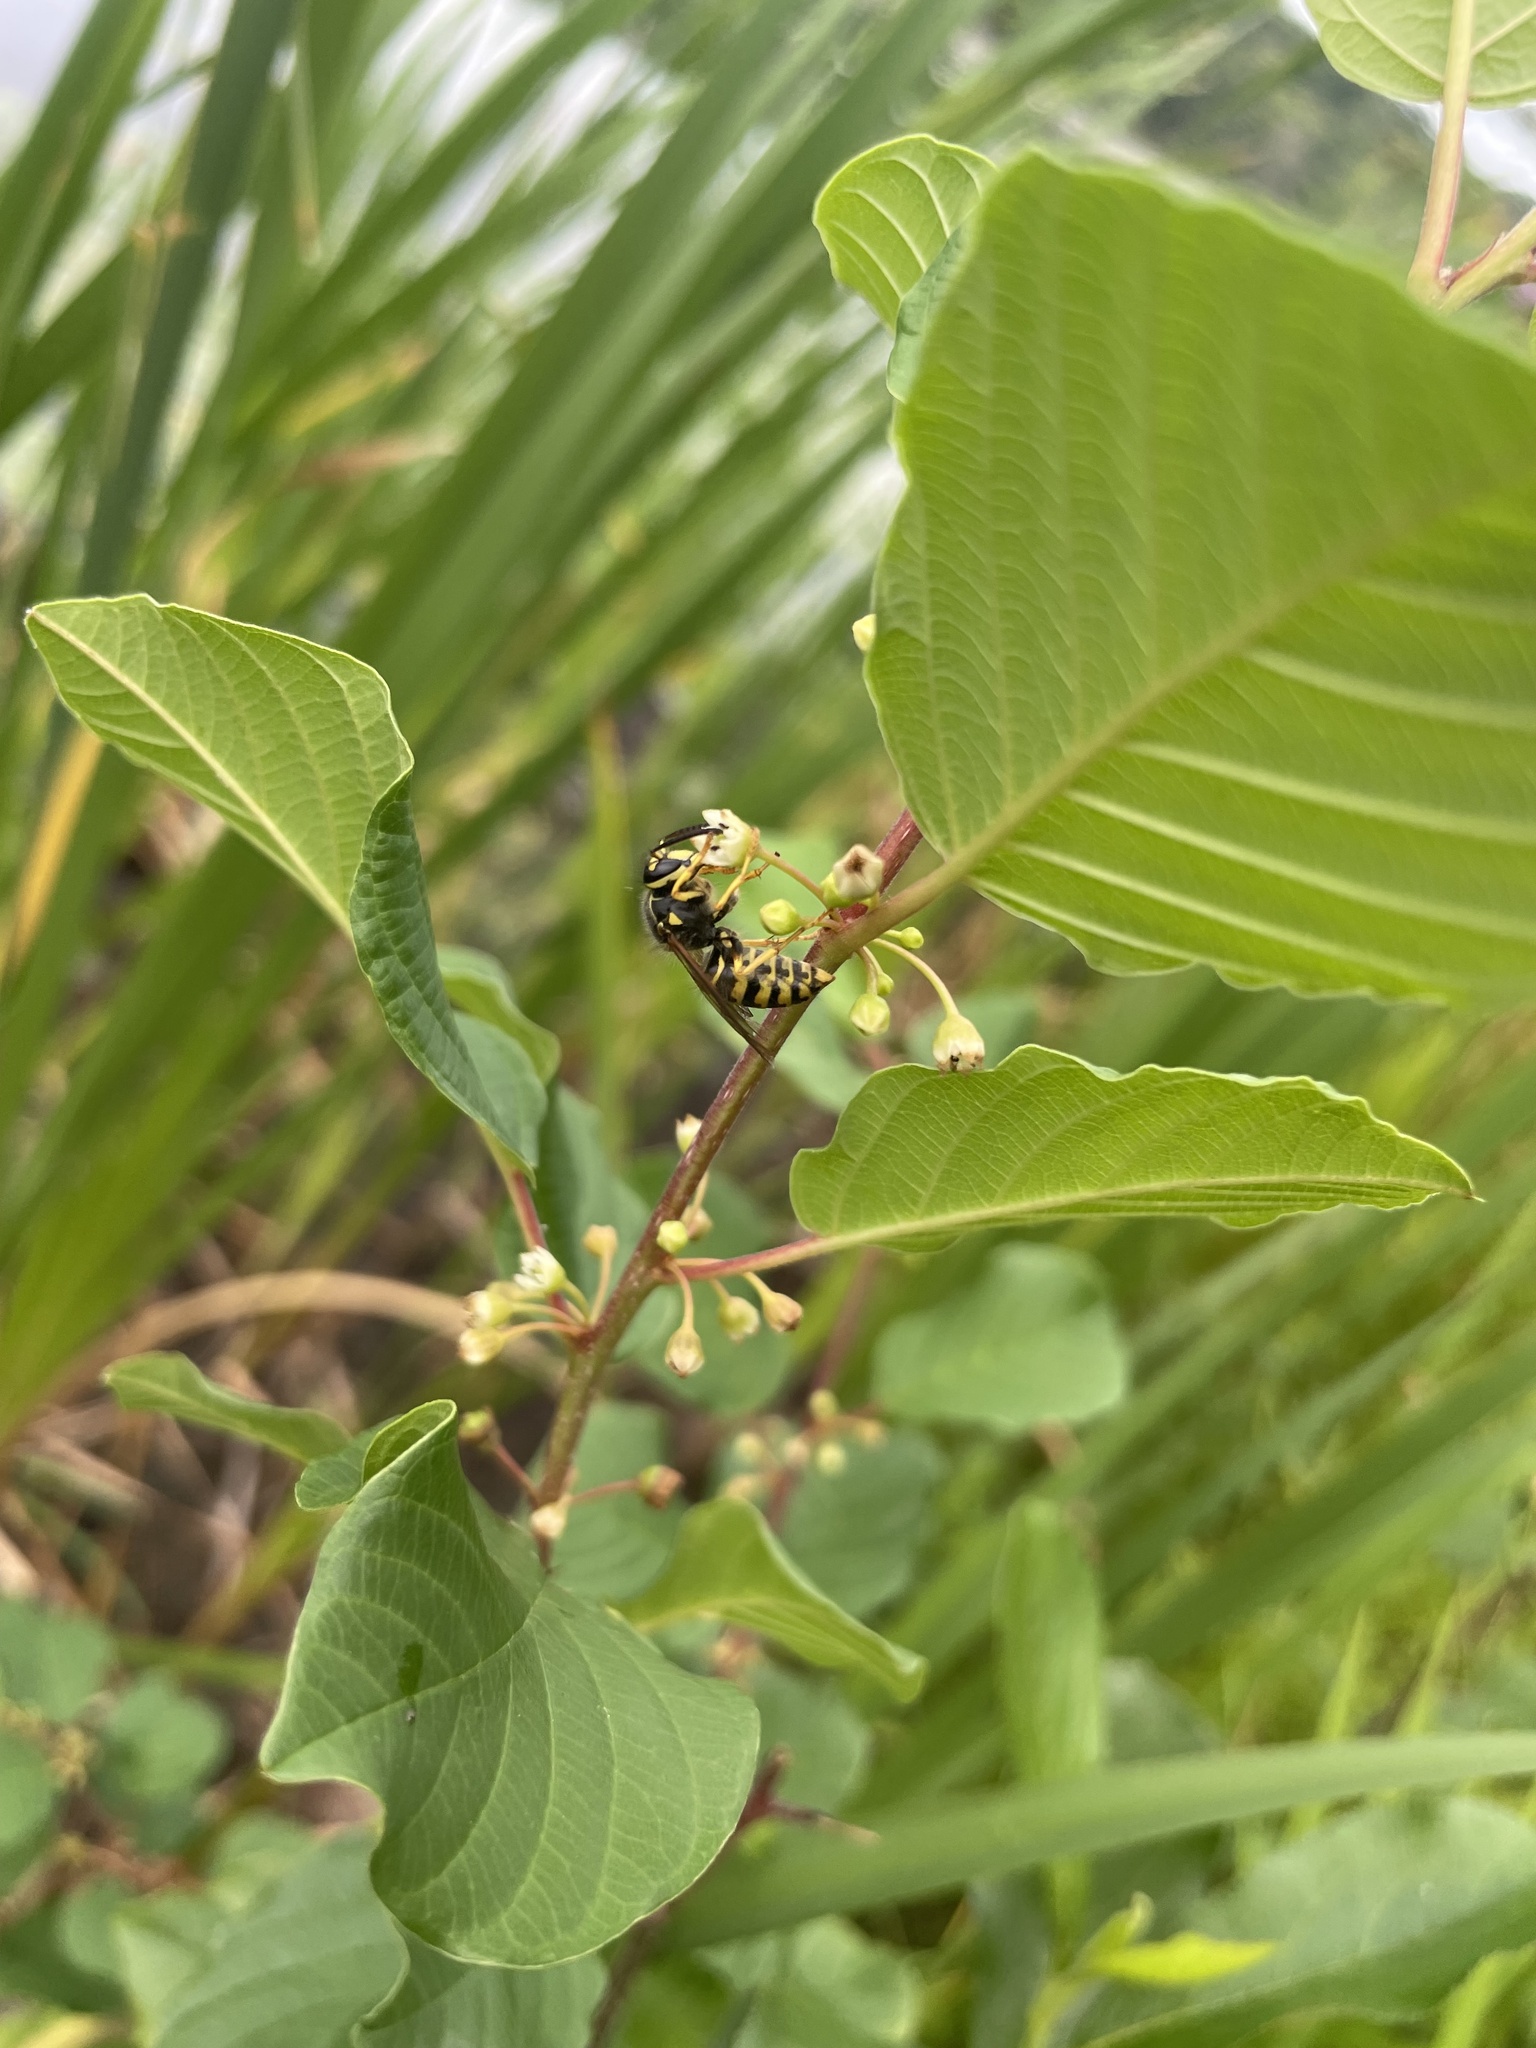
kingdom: Animalia
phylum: Arthropoda
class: Insecta
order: Hymenoptera
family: Vespidae
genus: Dolichovespula
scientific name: Dolichovespula arenaria
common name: Aerial yellowjacket
